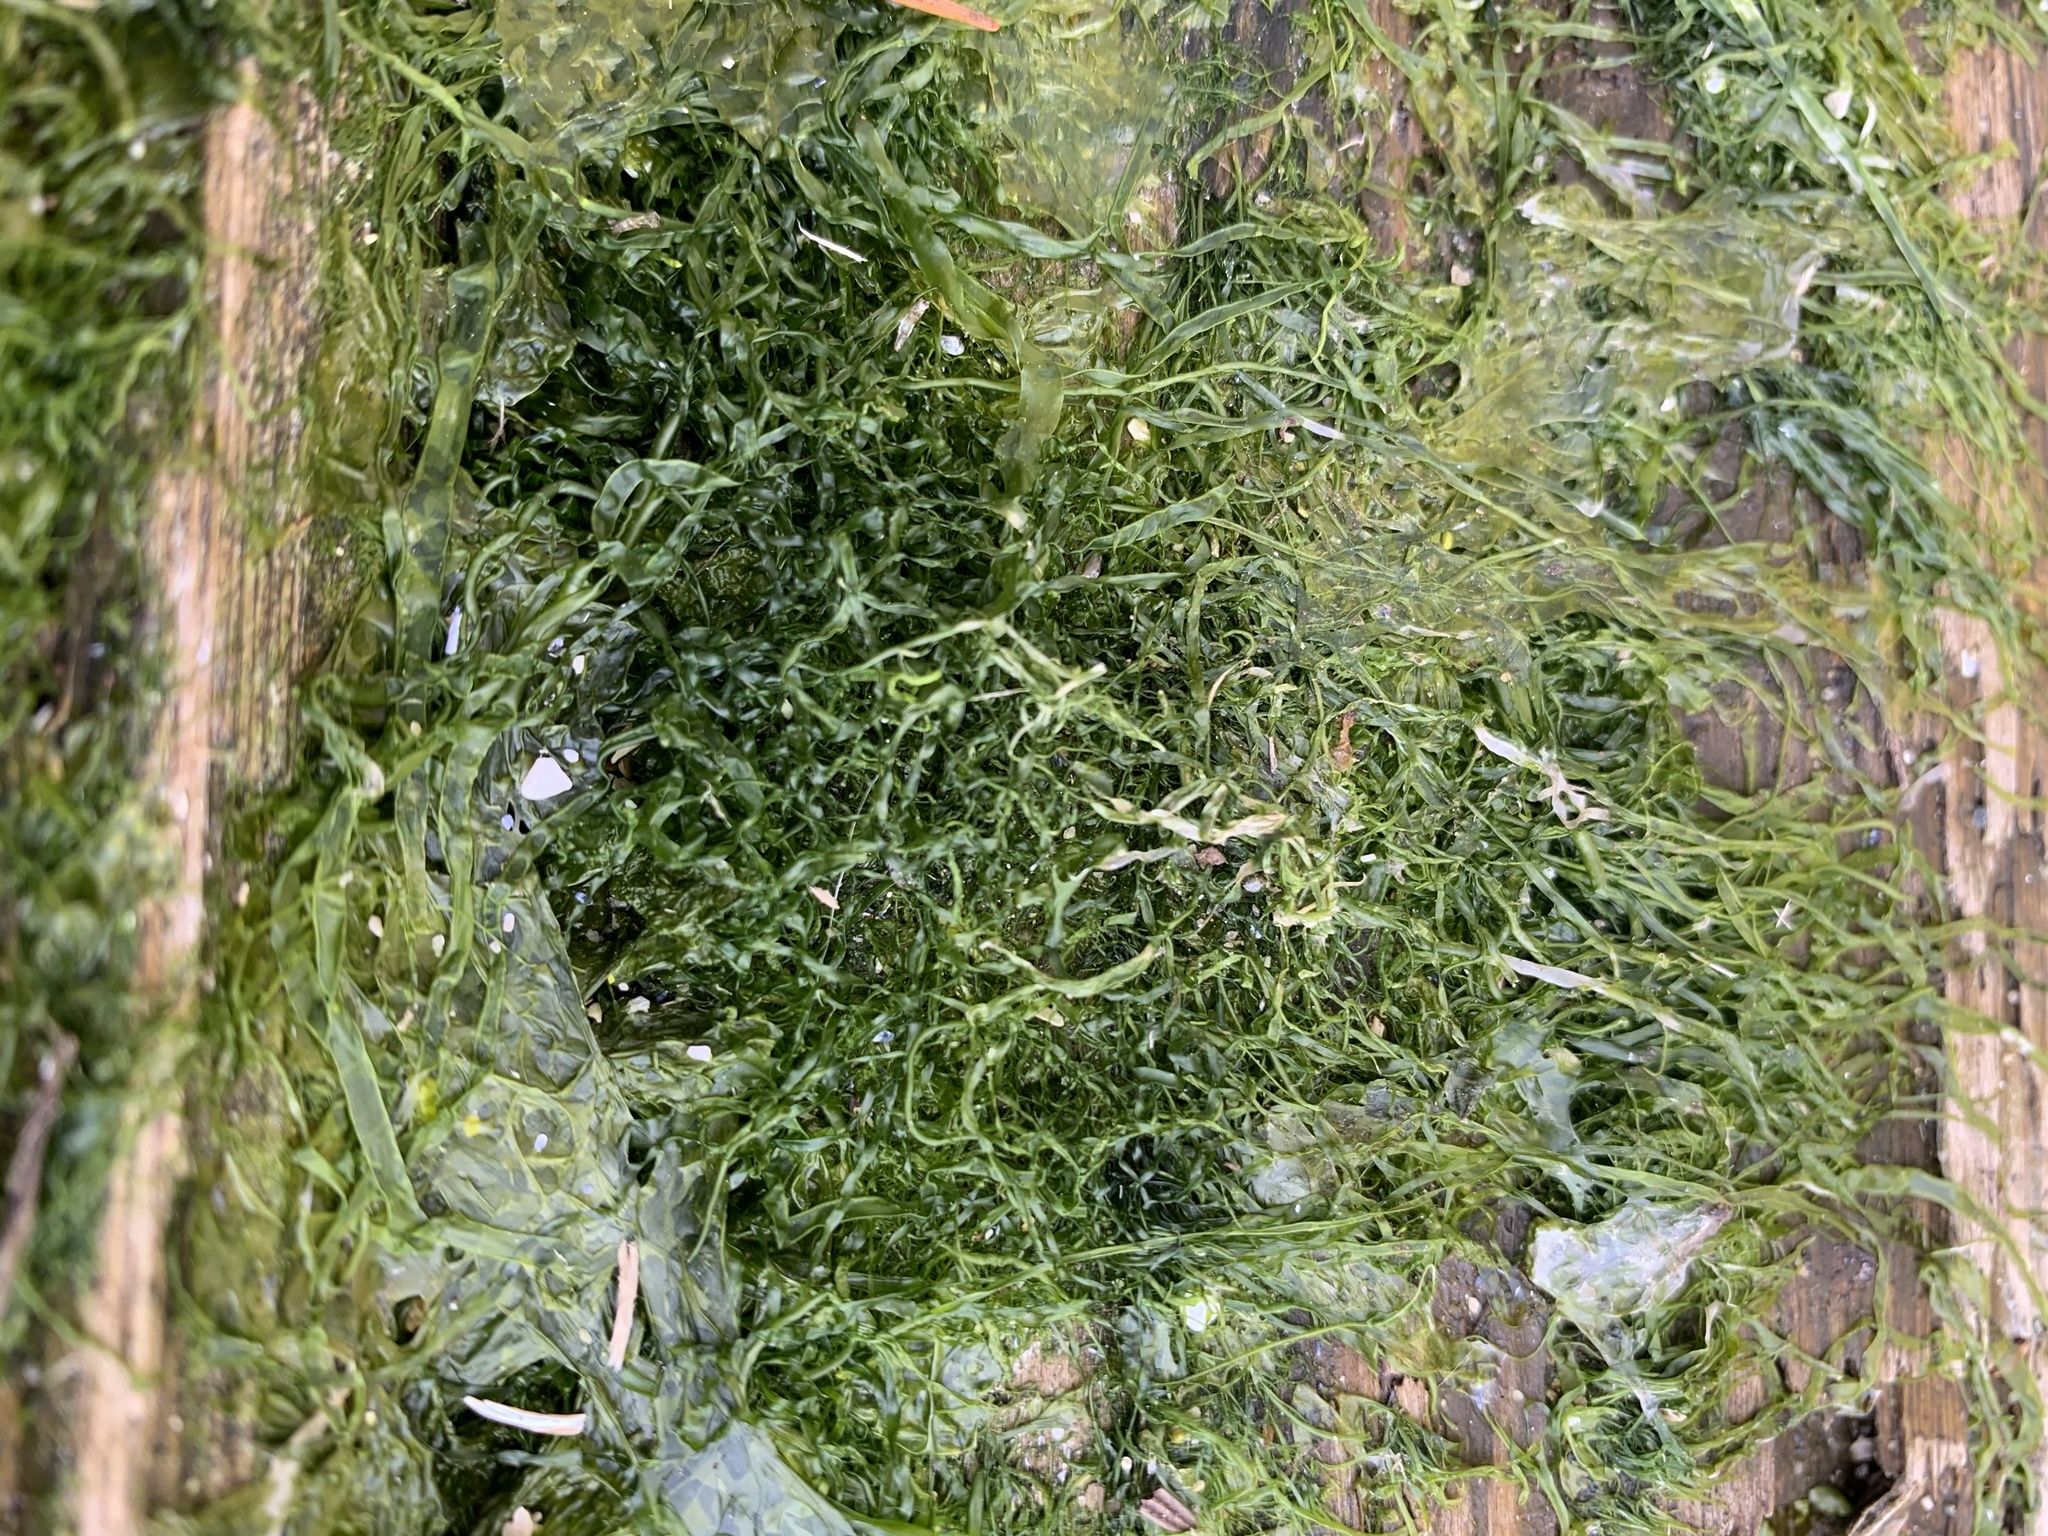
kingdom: Plantae
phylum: Chlorophyta
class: Ulvophyceae
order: Ulvales
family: Ulvaceae
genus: Ulva
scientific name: Ulva intestinalis
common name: Gut weed
